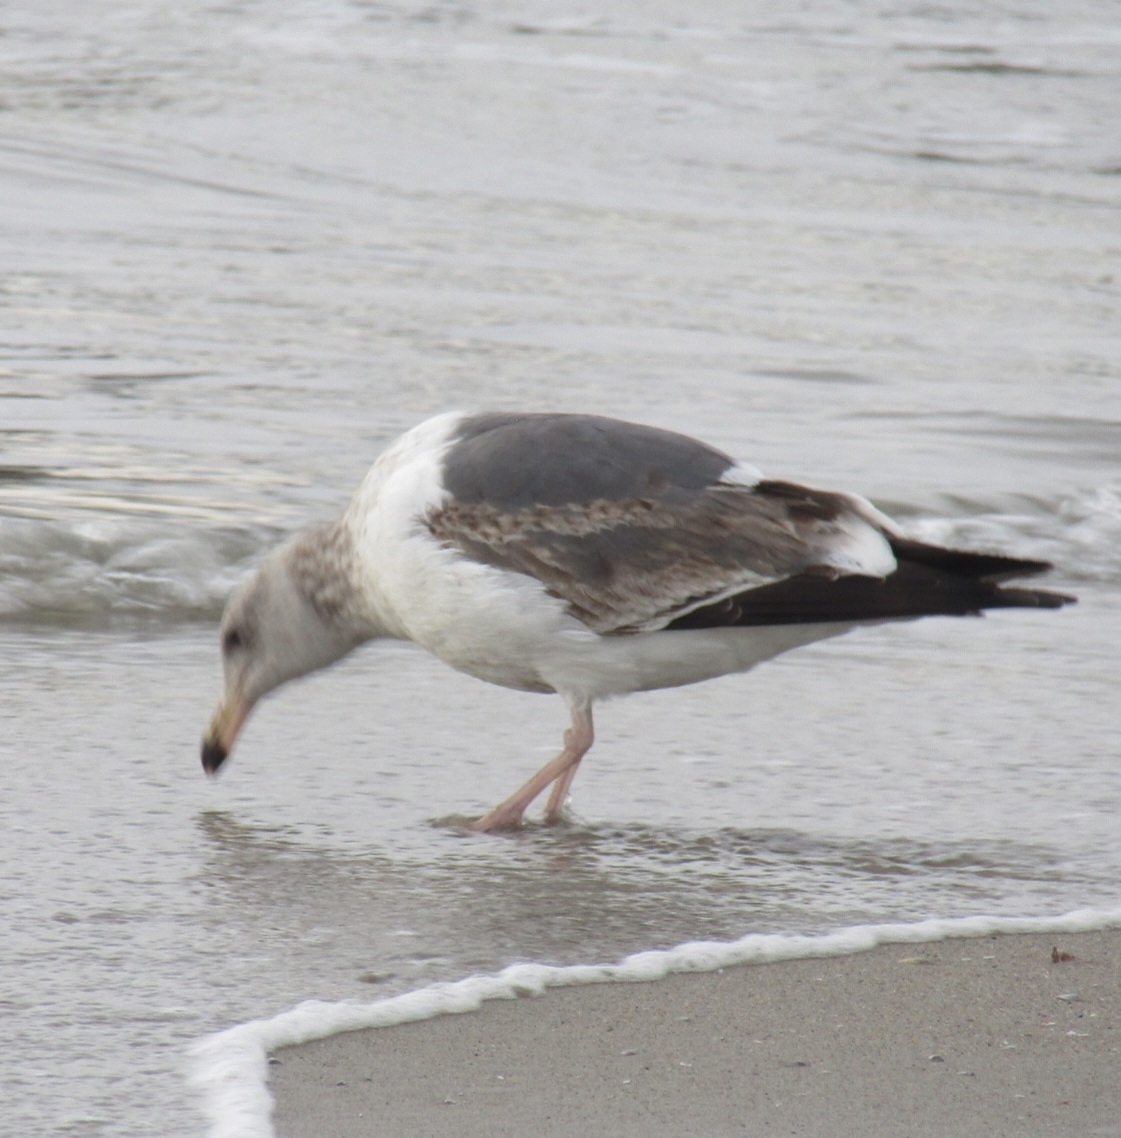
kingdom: Animalia
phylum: Chordata
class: Aves
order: Charadriiformes
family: Laridae
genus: Larus
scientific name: Larus occidentalis
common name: Western gull
